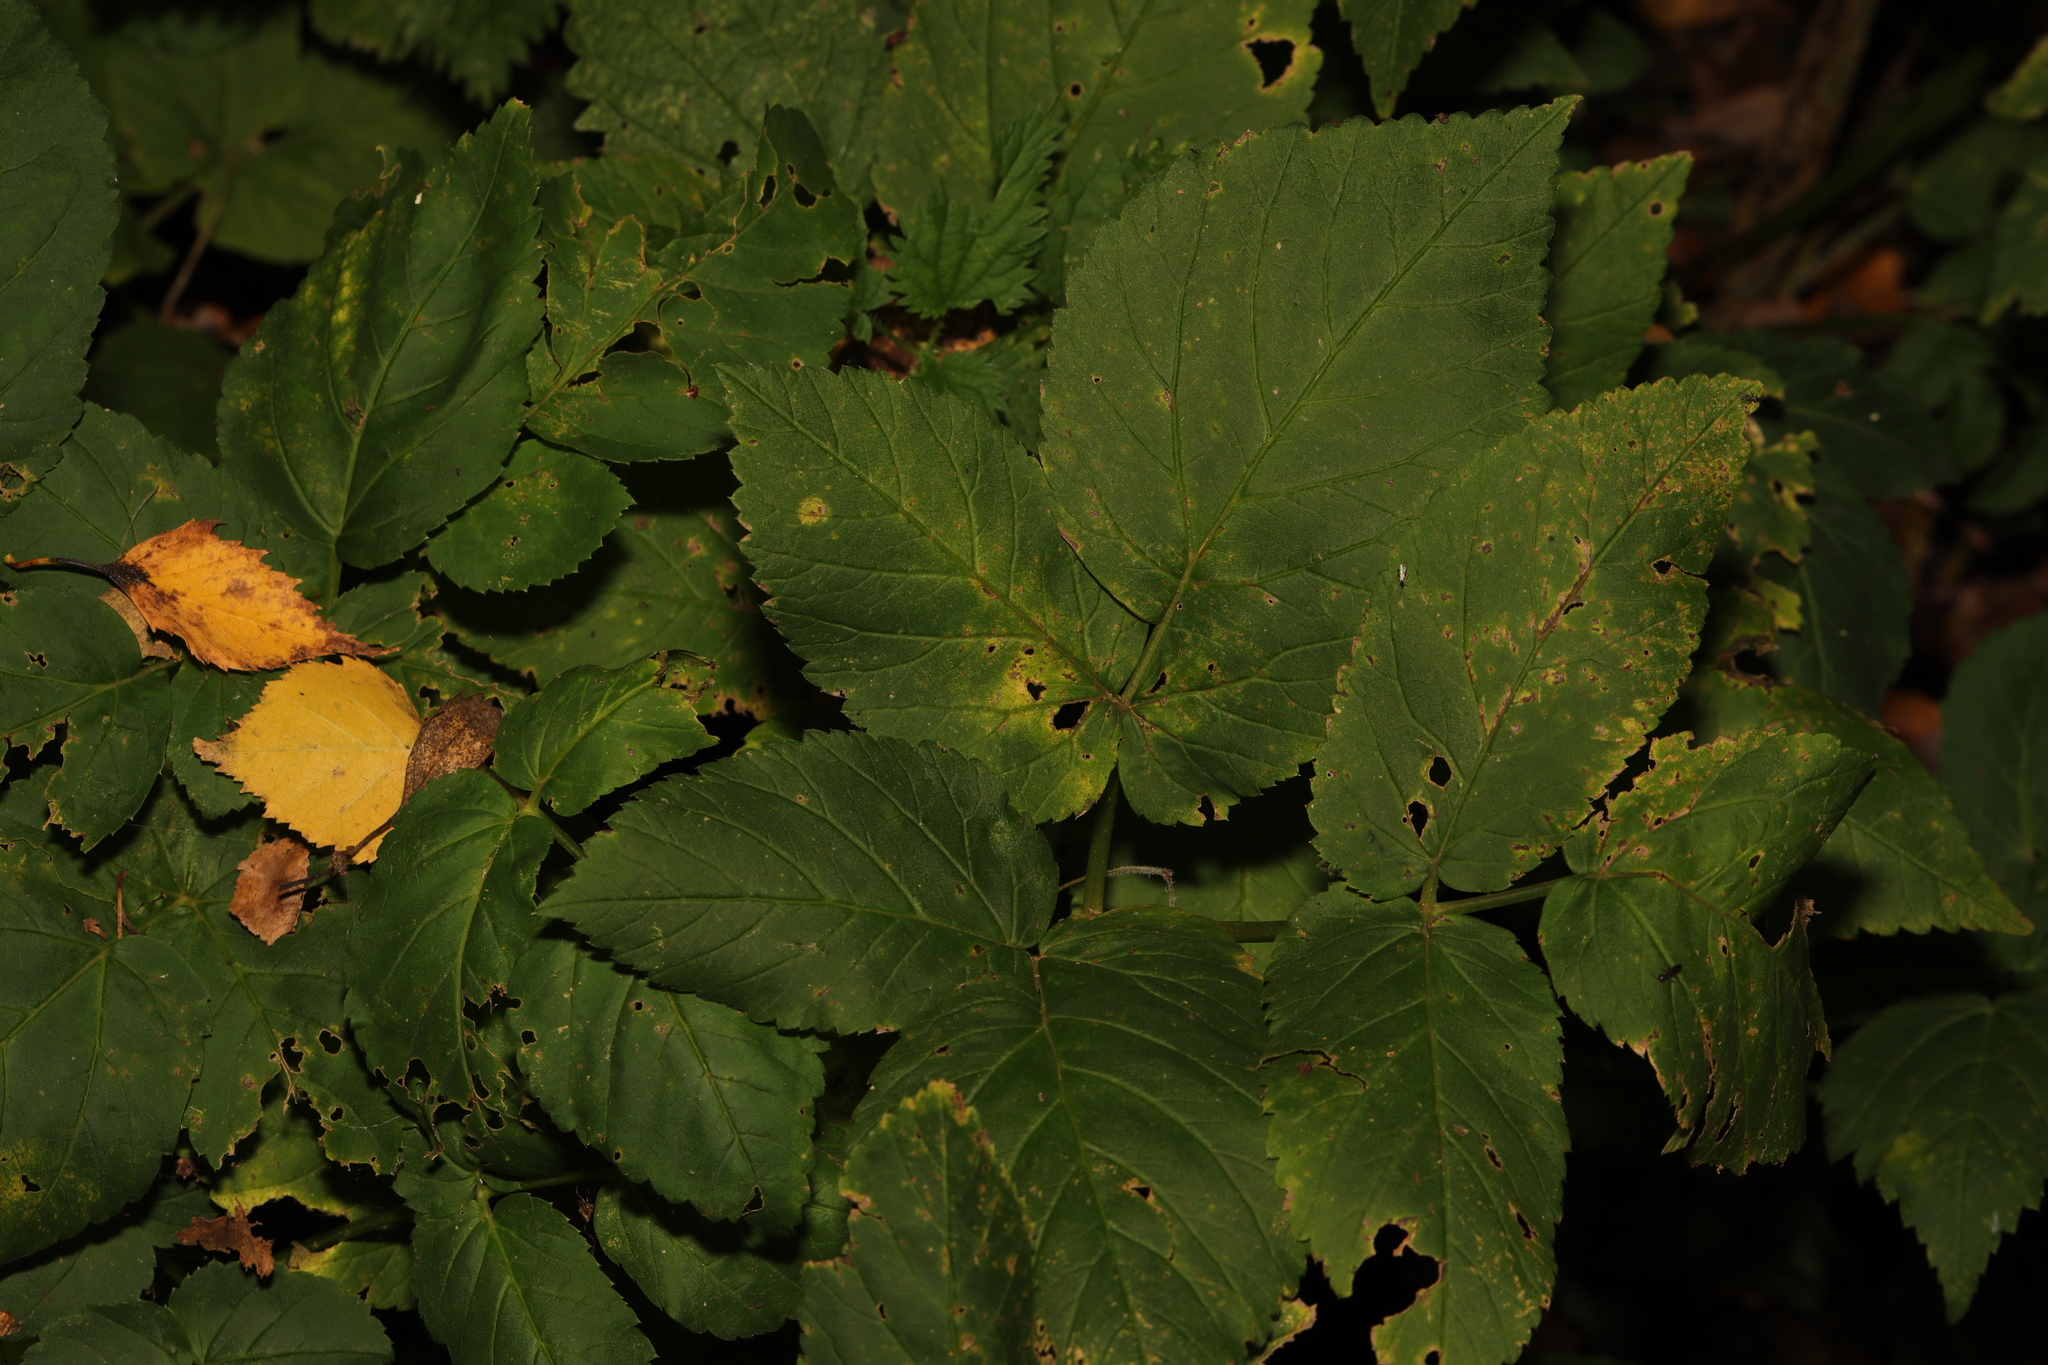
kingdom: Plantae
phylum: Tracheophyta
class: Magnoliopsida
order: Apiales
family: Apiaceae
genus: Aegopodium
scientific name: Aegopodium podagraria
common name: Ground-elder
